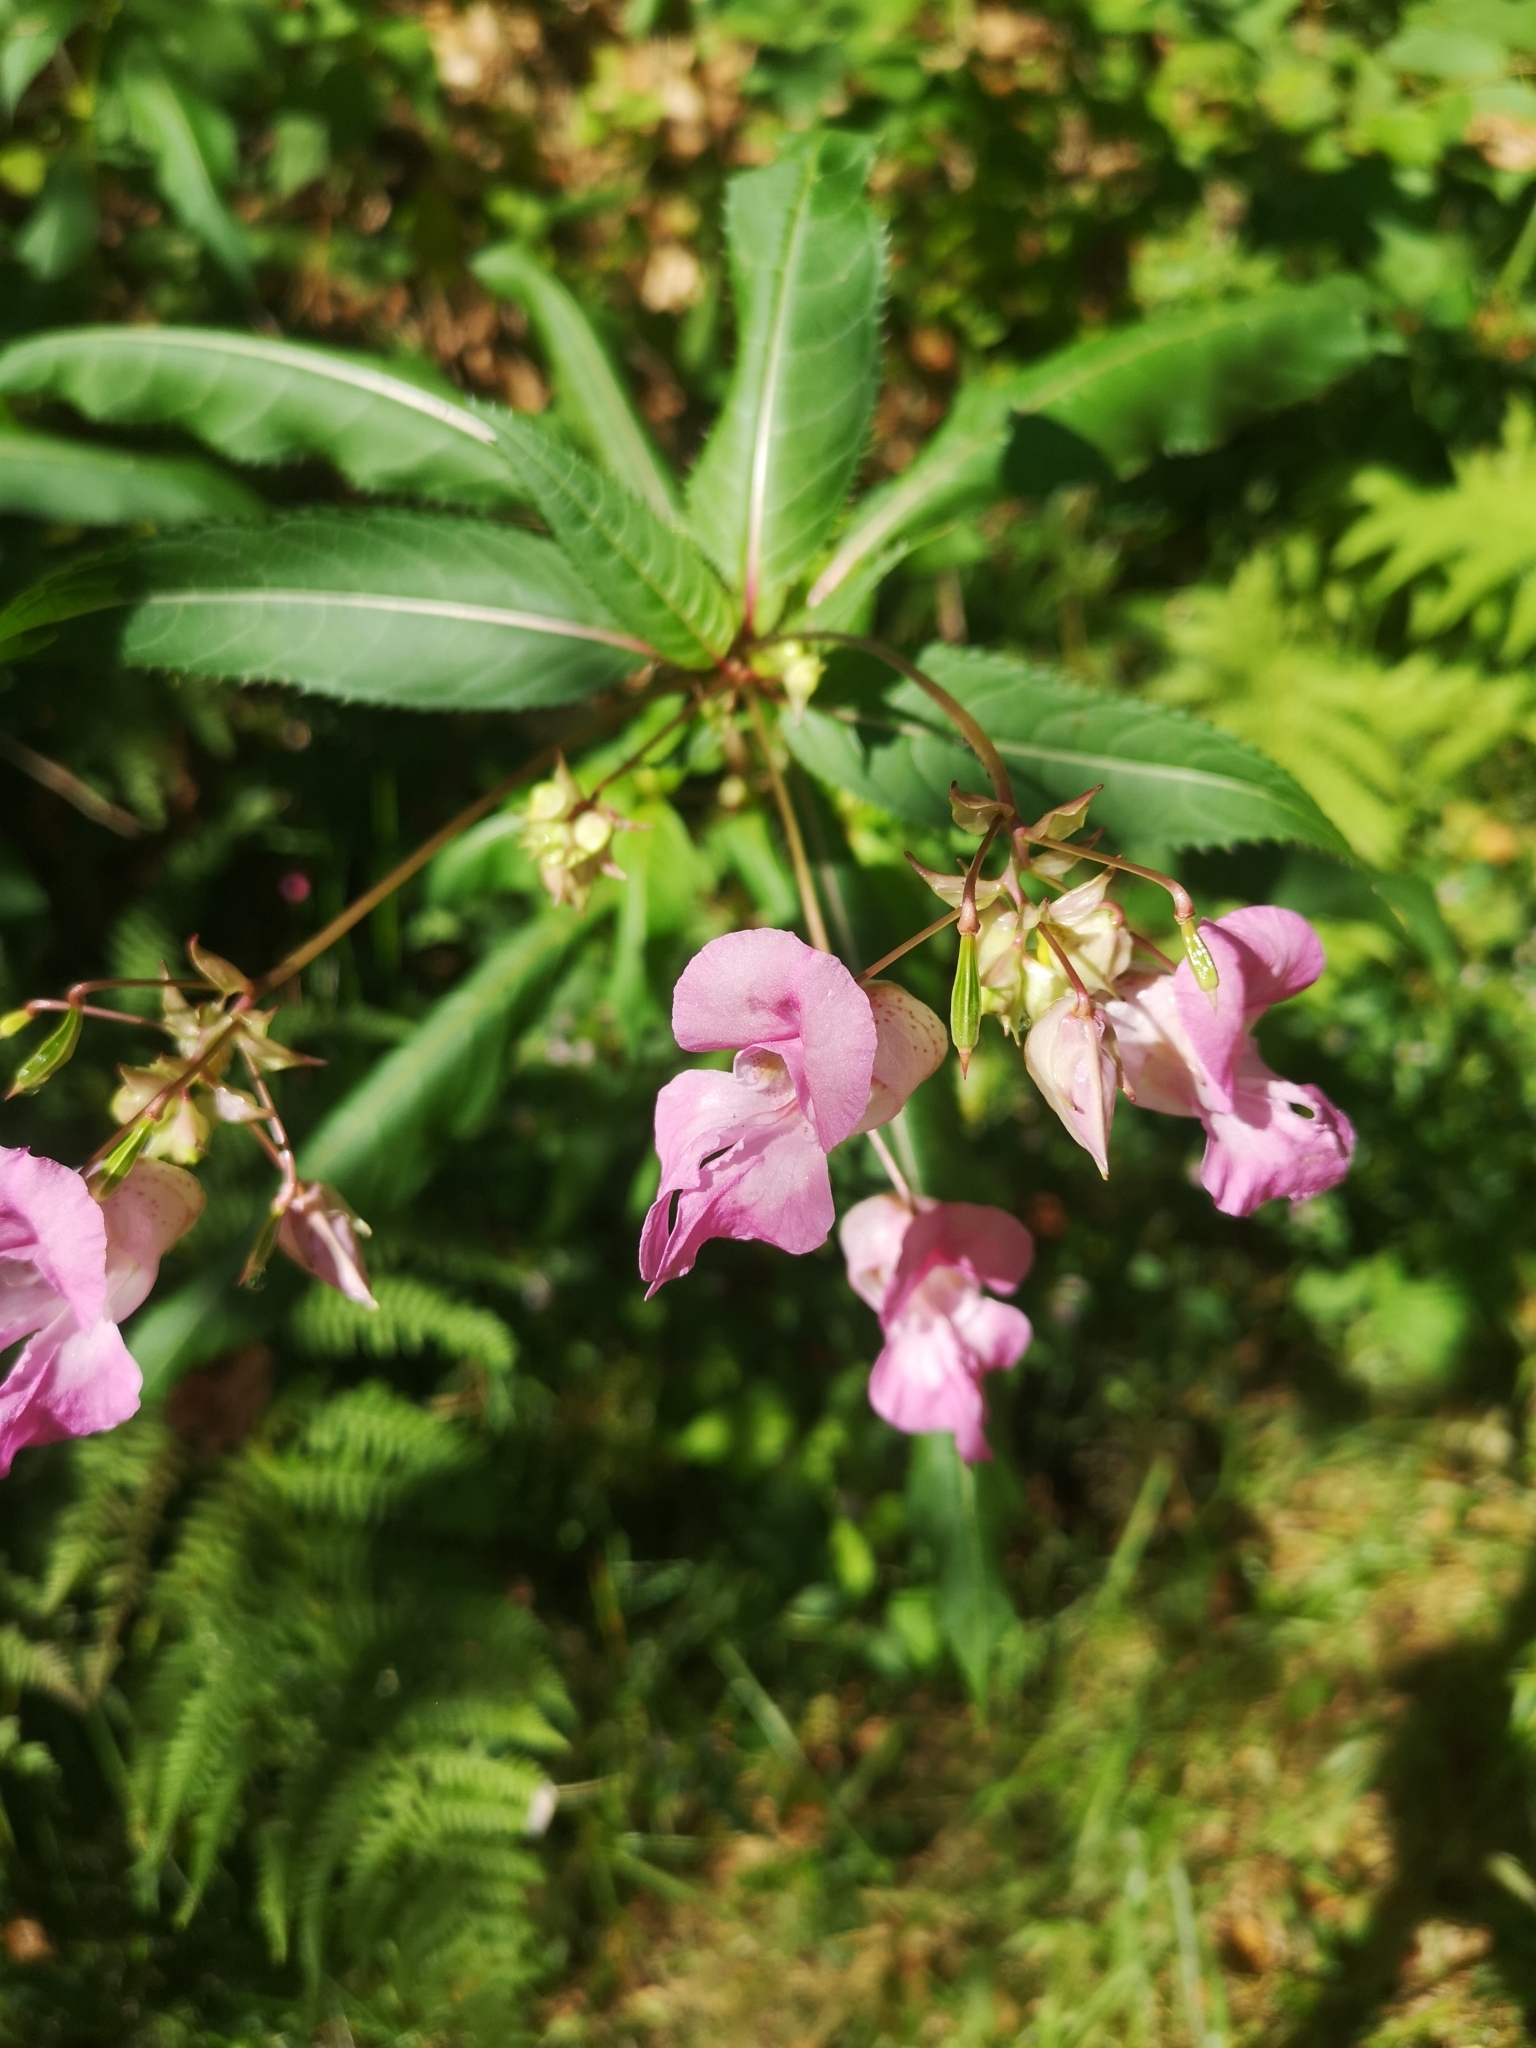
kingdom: Plantae
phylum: Tracheophyta
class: Magnoliopsida
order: Ericales
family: Balsaminaceae
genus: Impatiens
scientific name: Impatiens glandulifera
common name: Himalayan balsam
